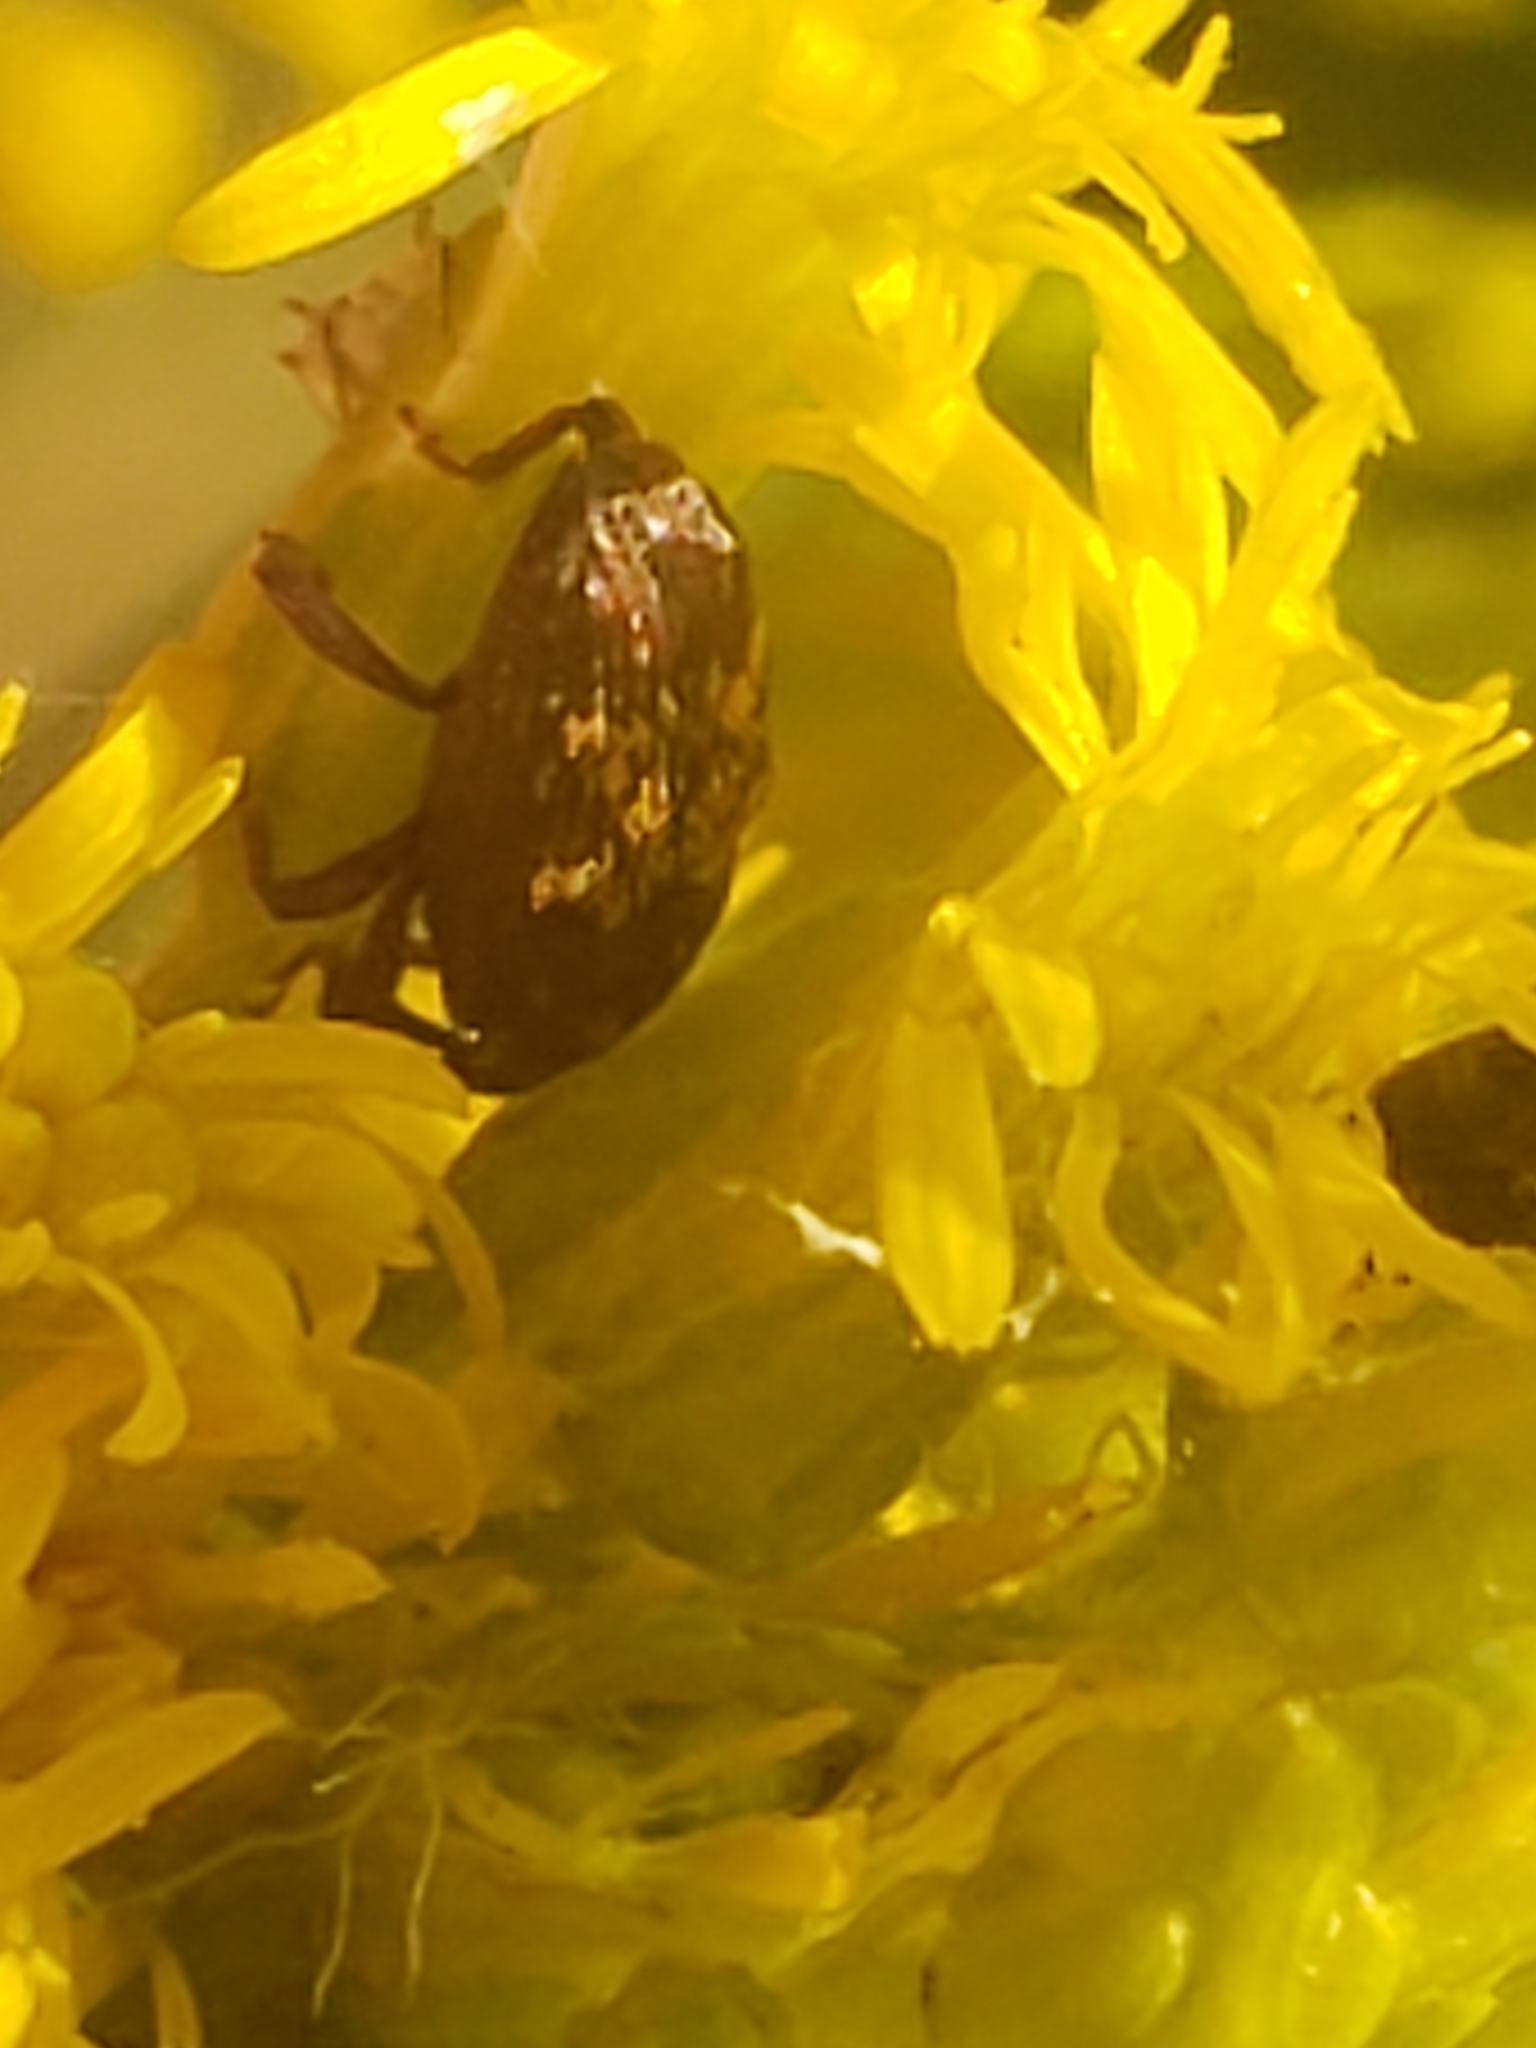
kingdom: Animalia
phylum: Arthropoda
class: Insecta
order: Coleoptera
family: Curculionidae
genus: Glyptobaris
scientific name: Glyptobaris lecontei
